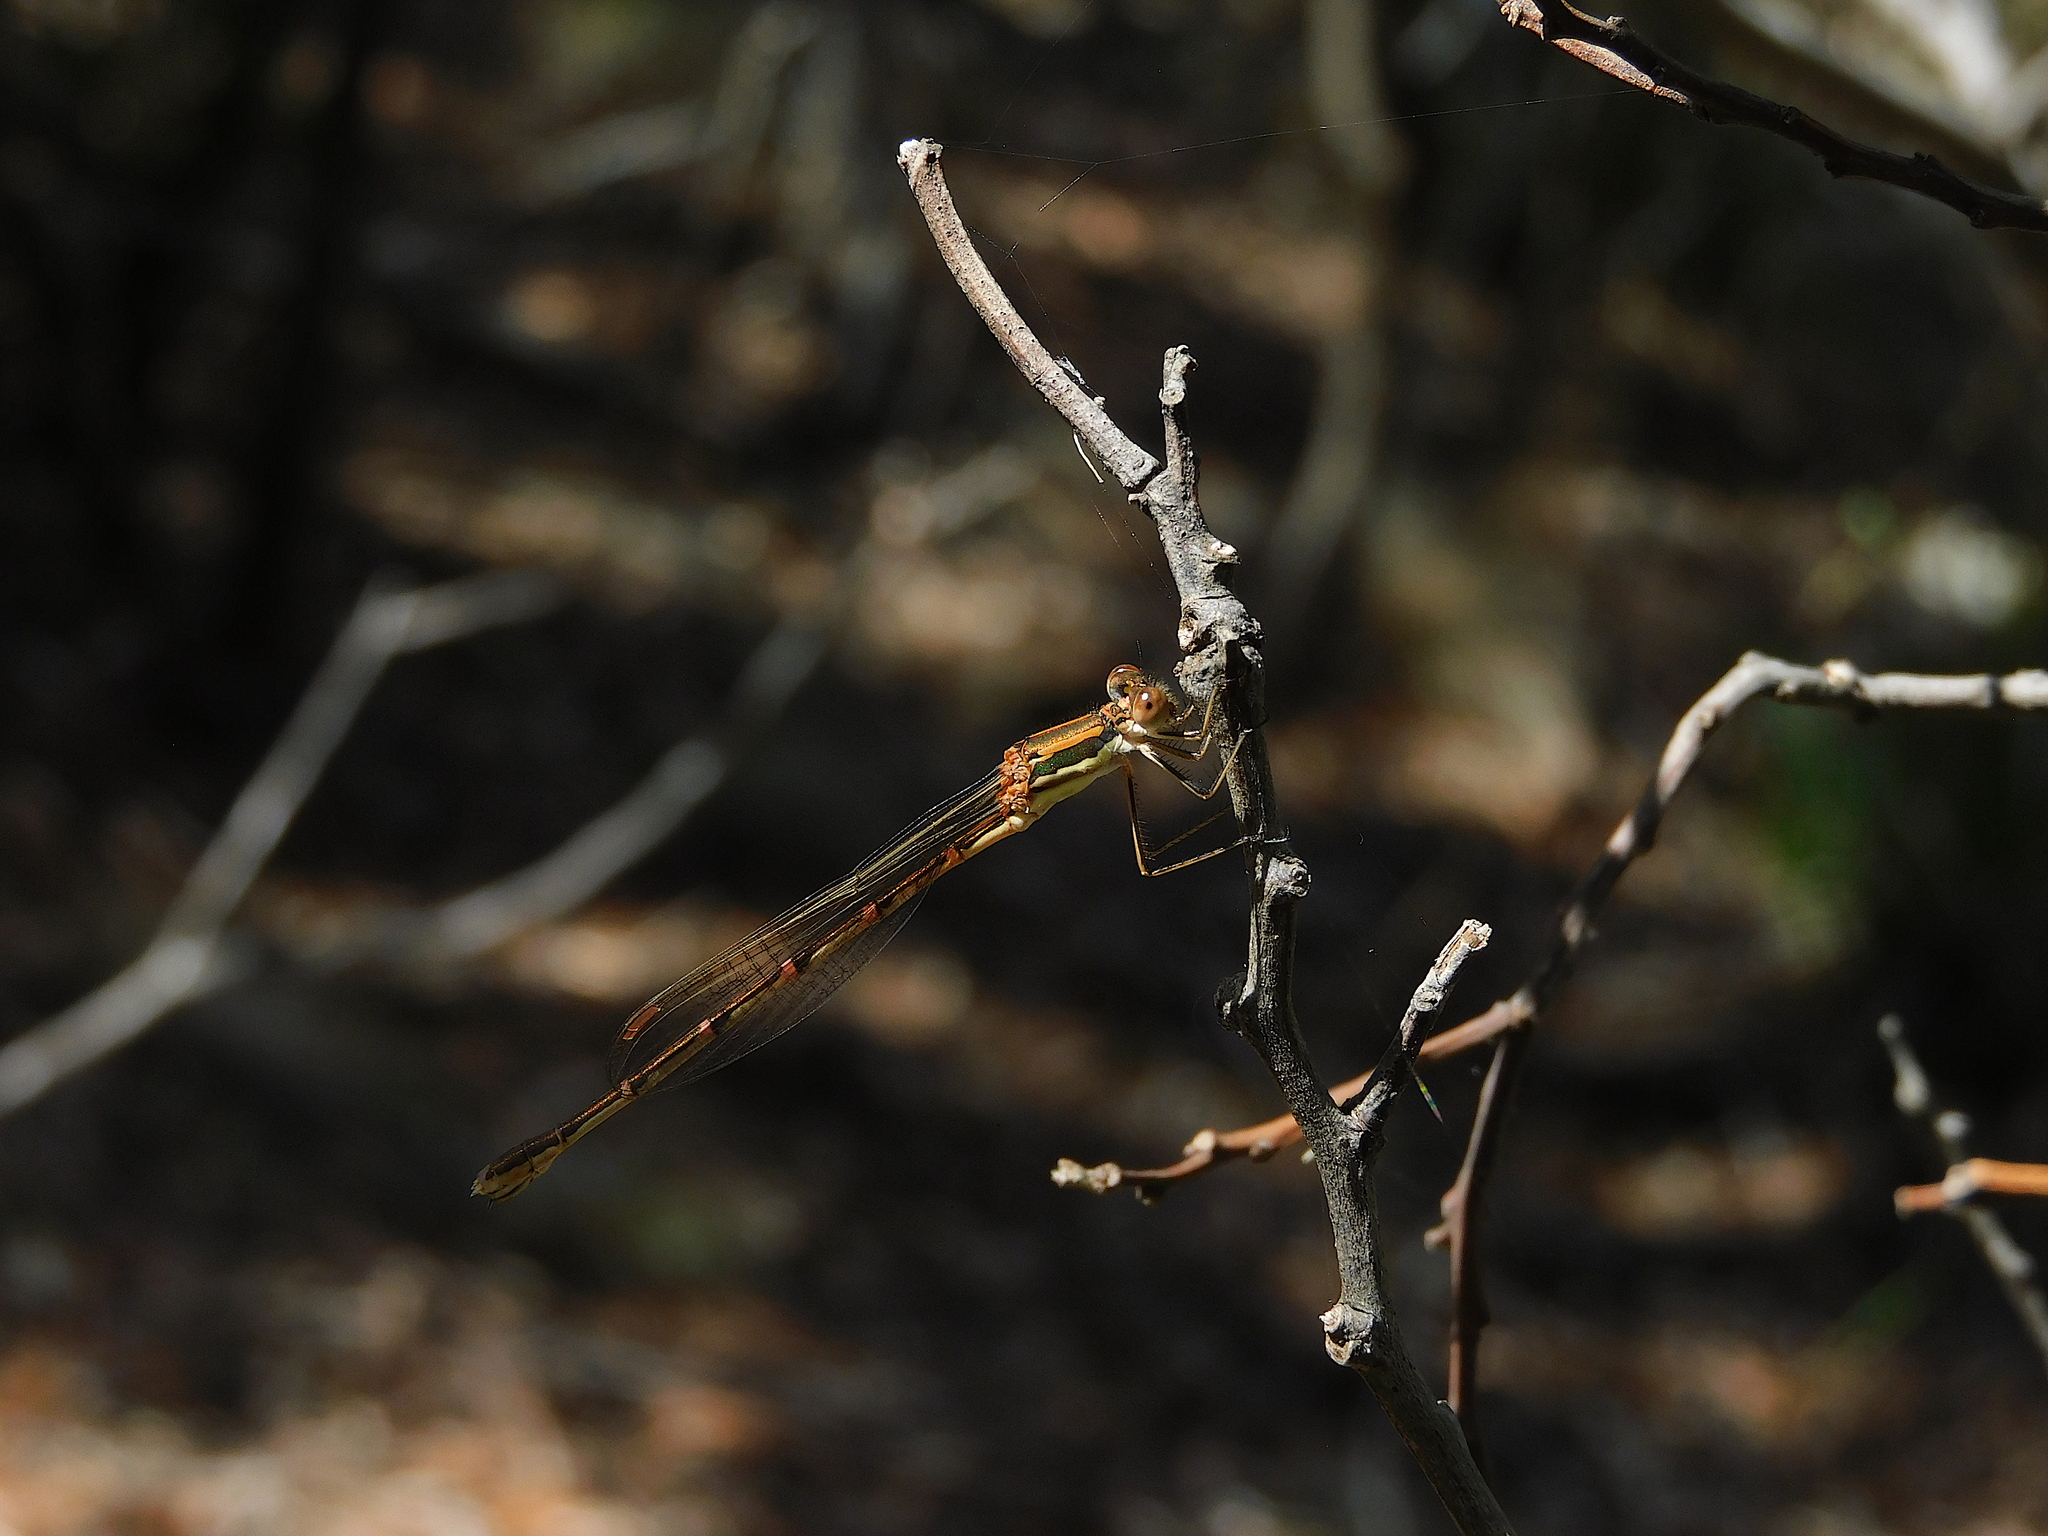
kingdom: Animalia
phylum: Arthropoda
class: Insecta
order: Odonata
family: Lestidae
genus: Austrolestes
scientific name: Austrolestes analis
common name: Slender ringtail
